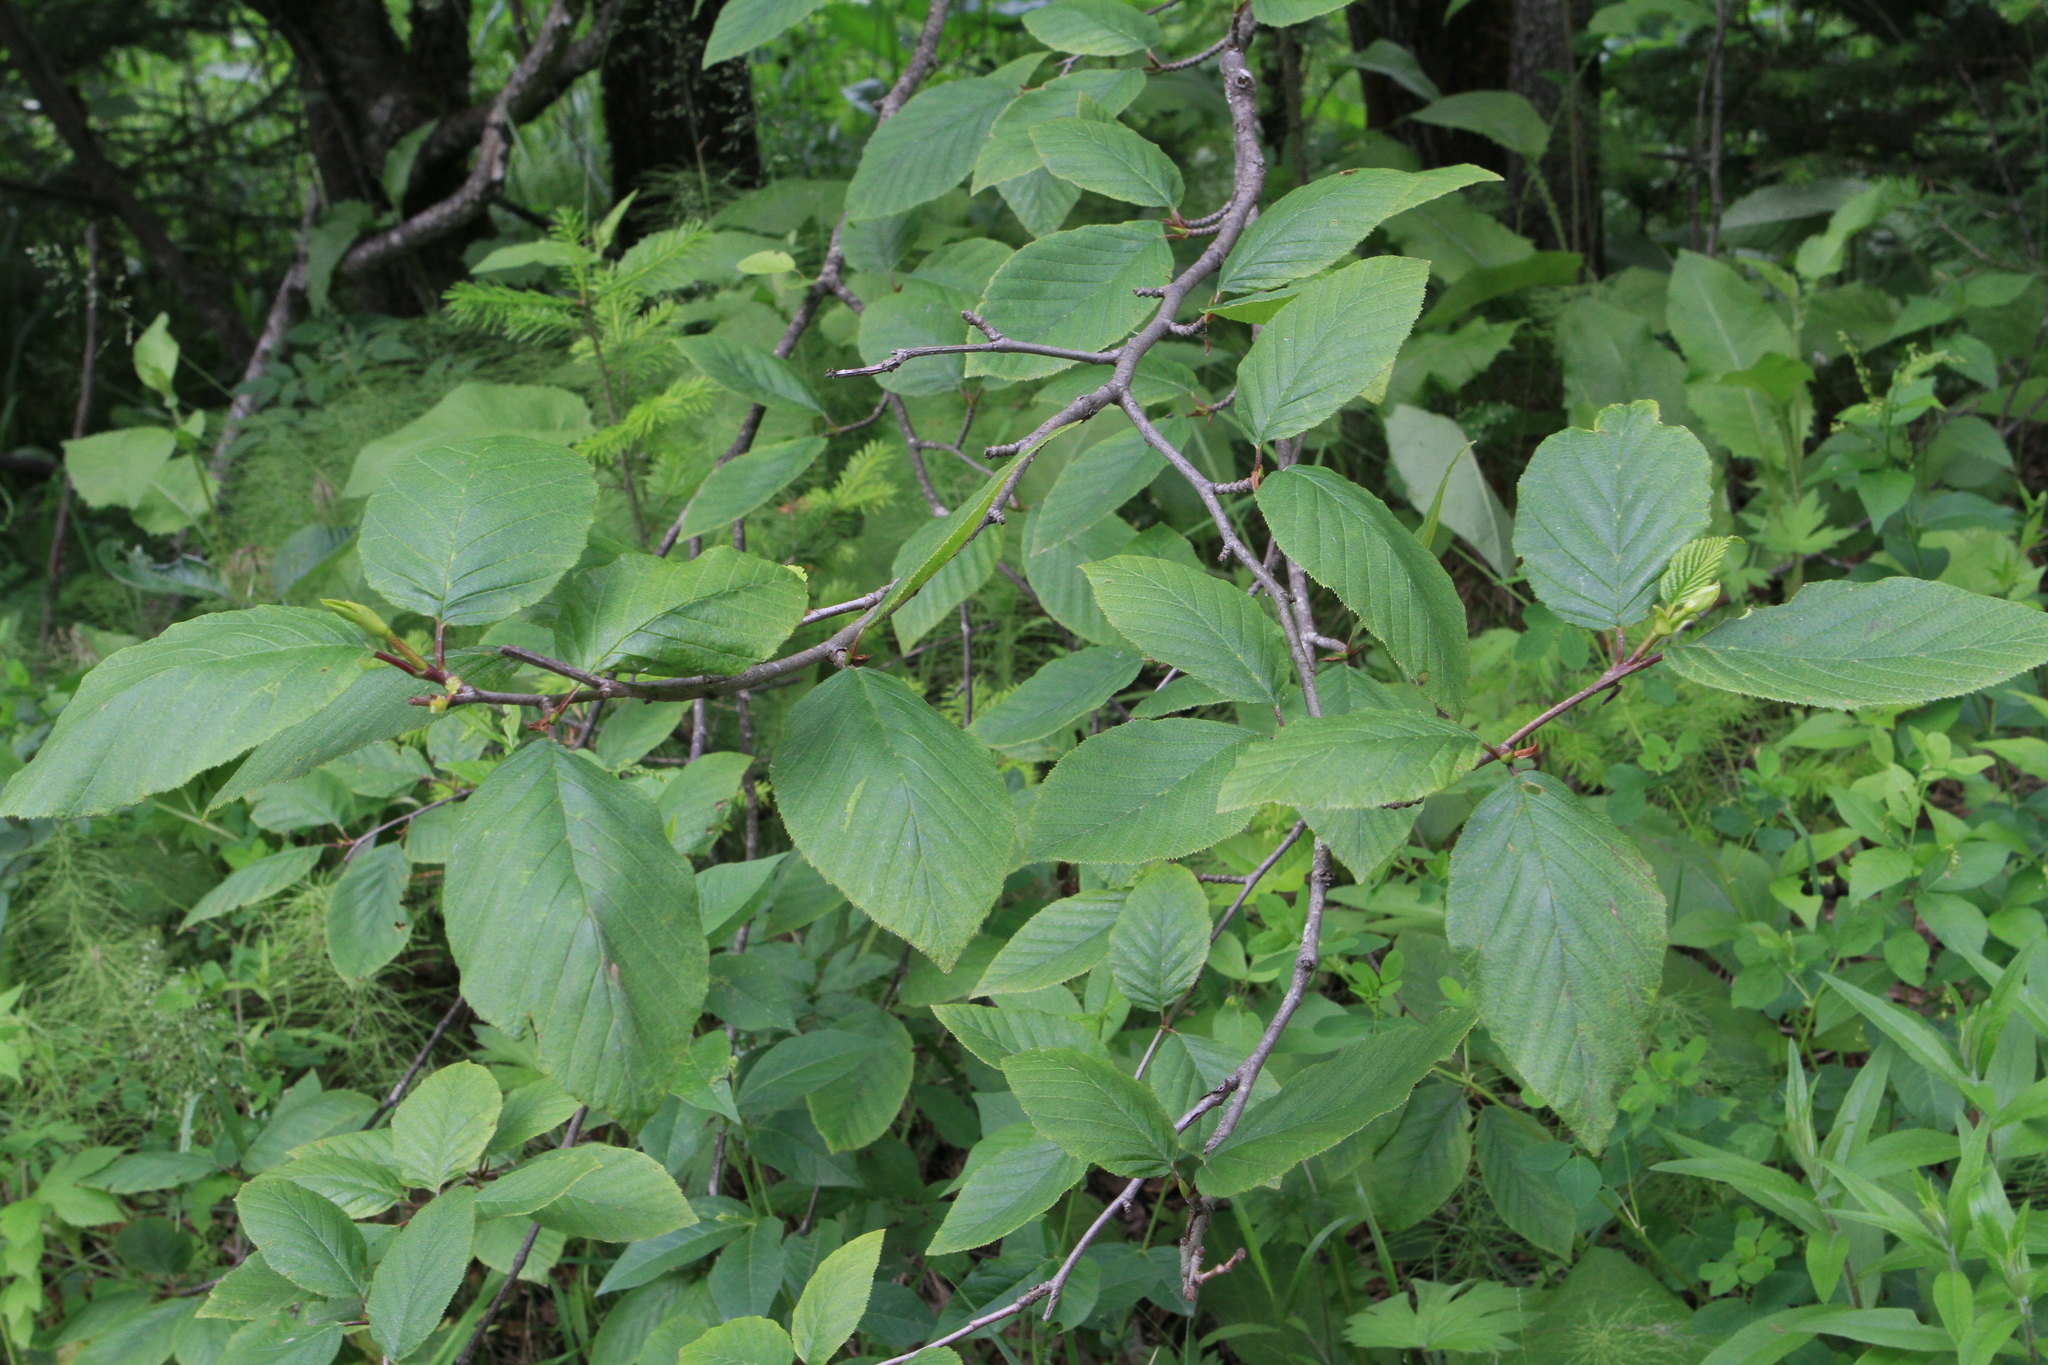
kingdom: Plantae
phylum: Tracheophyta
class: Magnoliopsida
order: Fagales
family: Betulaceae
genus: Alnus
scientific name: Alnus alnobetula
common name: Green alder
